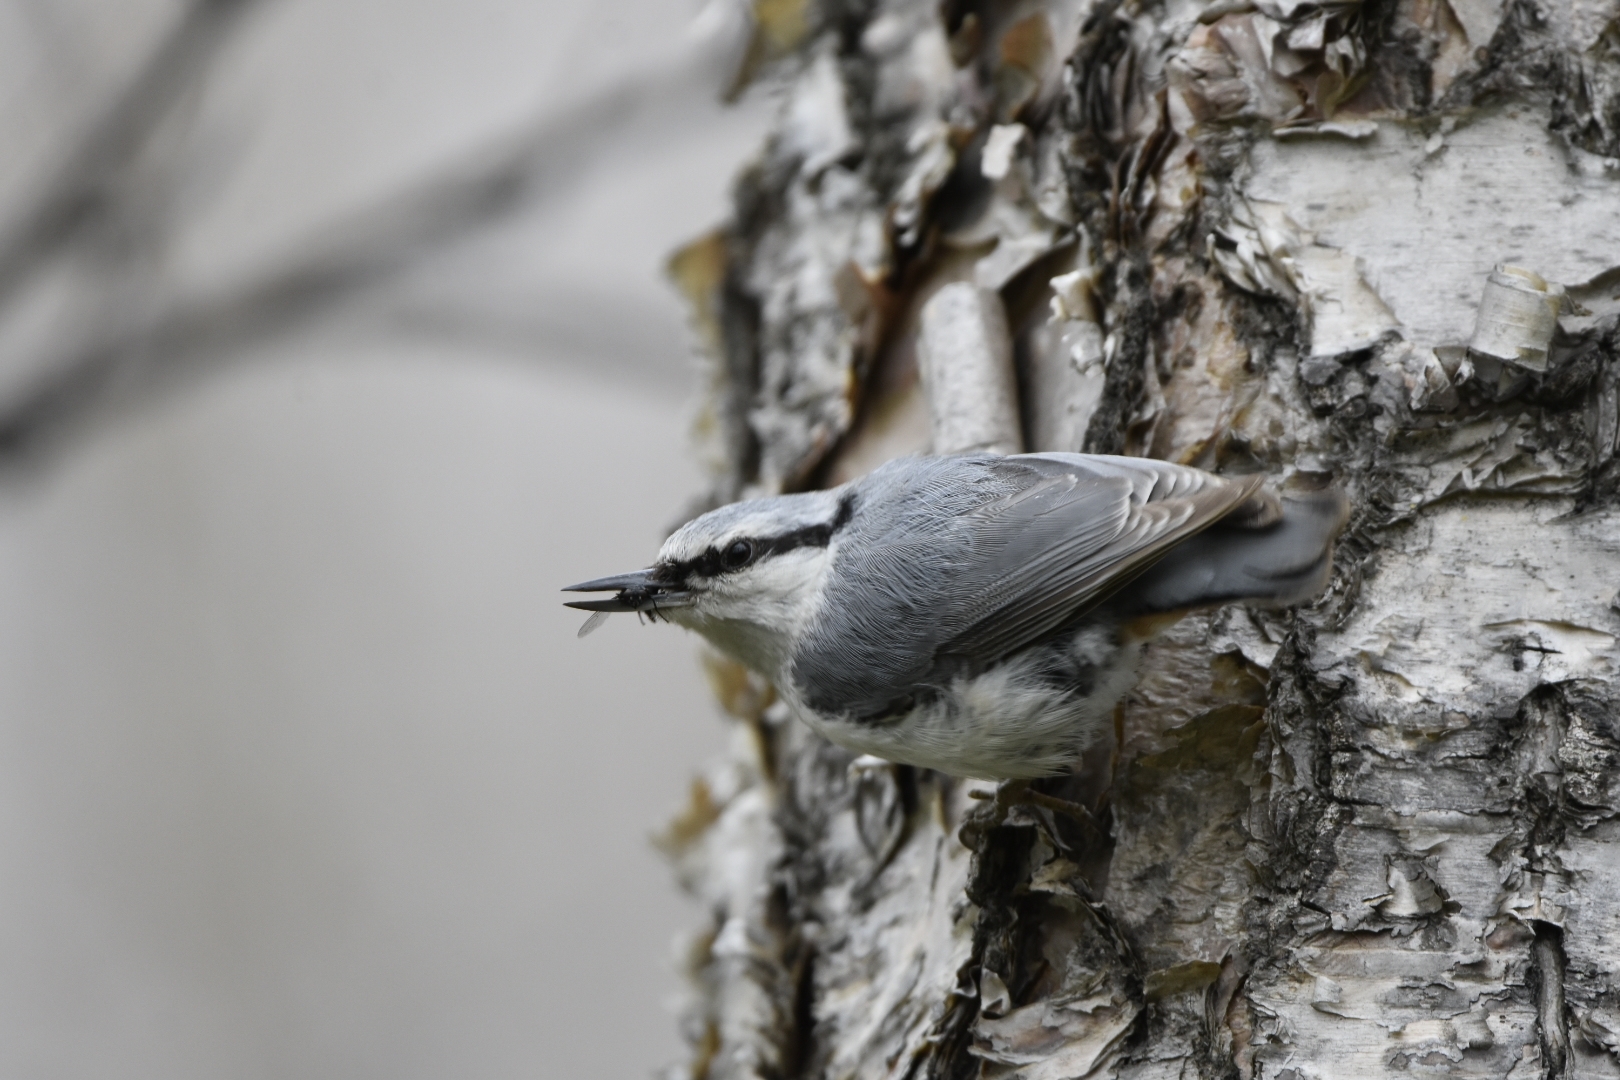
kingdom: Animalia
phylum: Chordata
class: Aves
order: Passeriformes
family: Sittidae
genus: Sitta
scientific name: Sitta europaea
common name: Eurasian nuthatch
